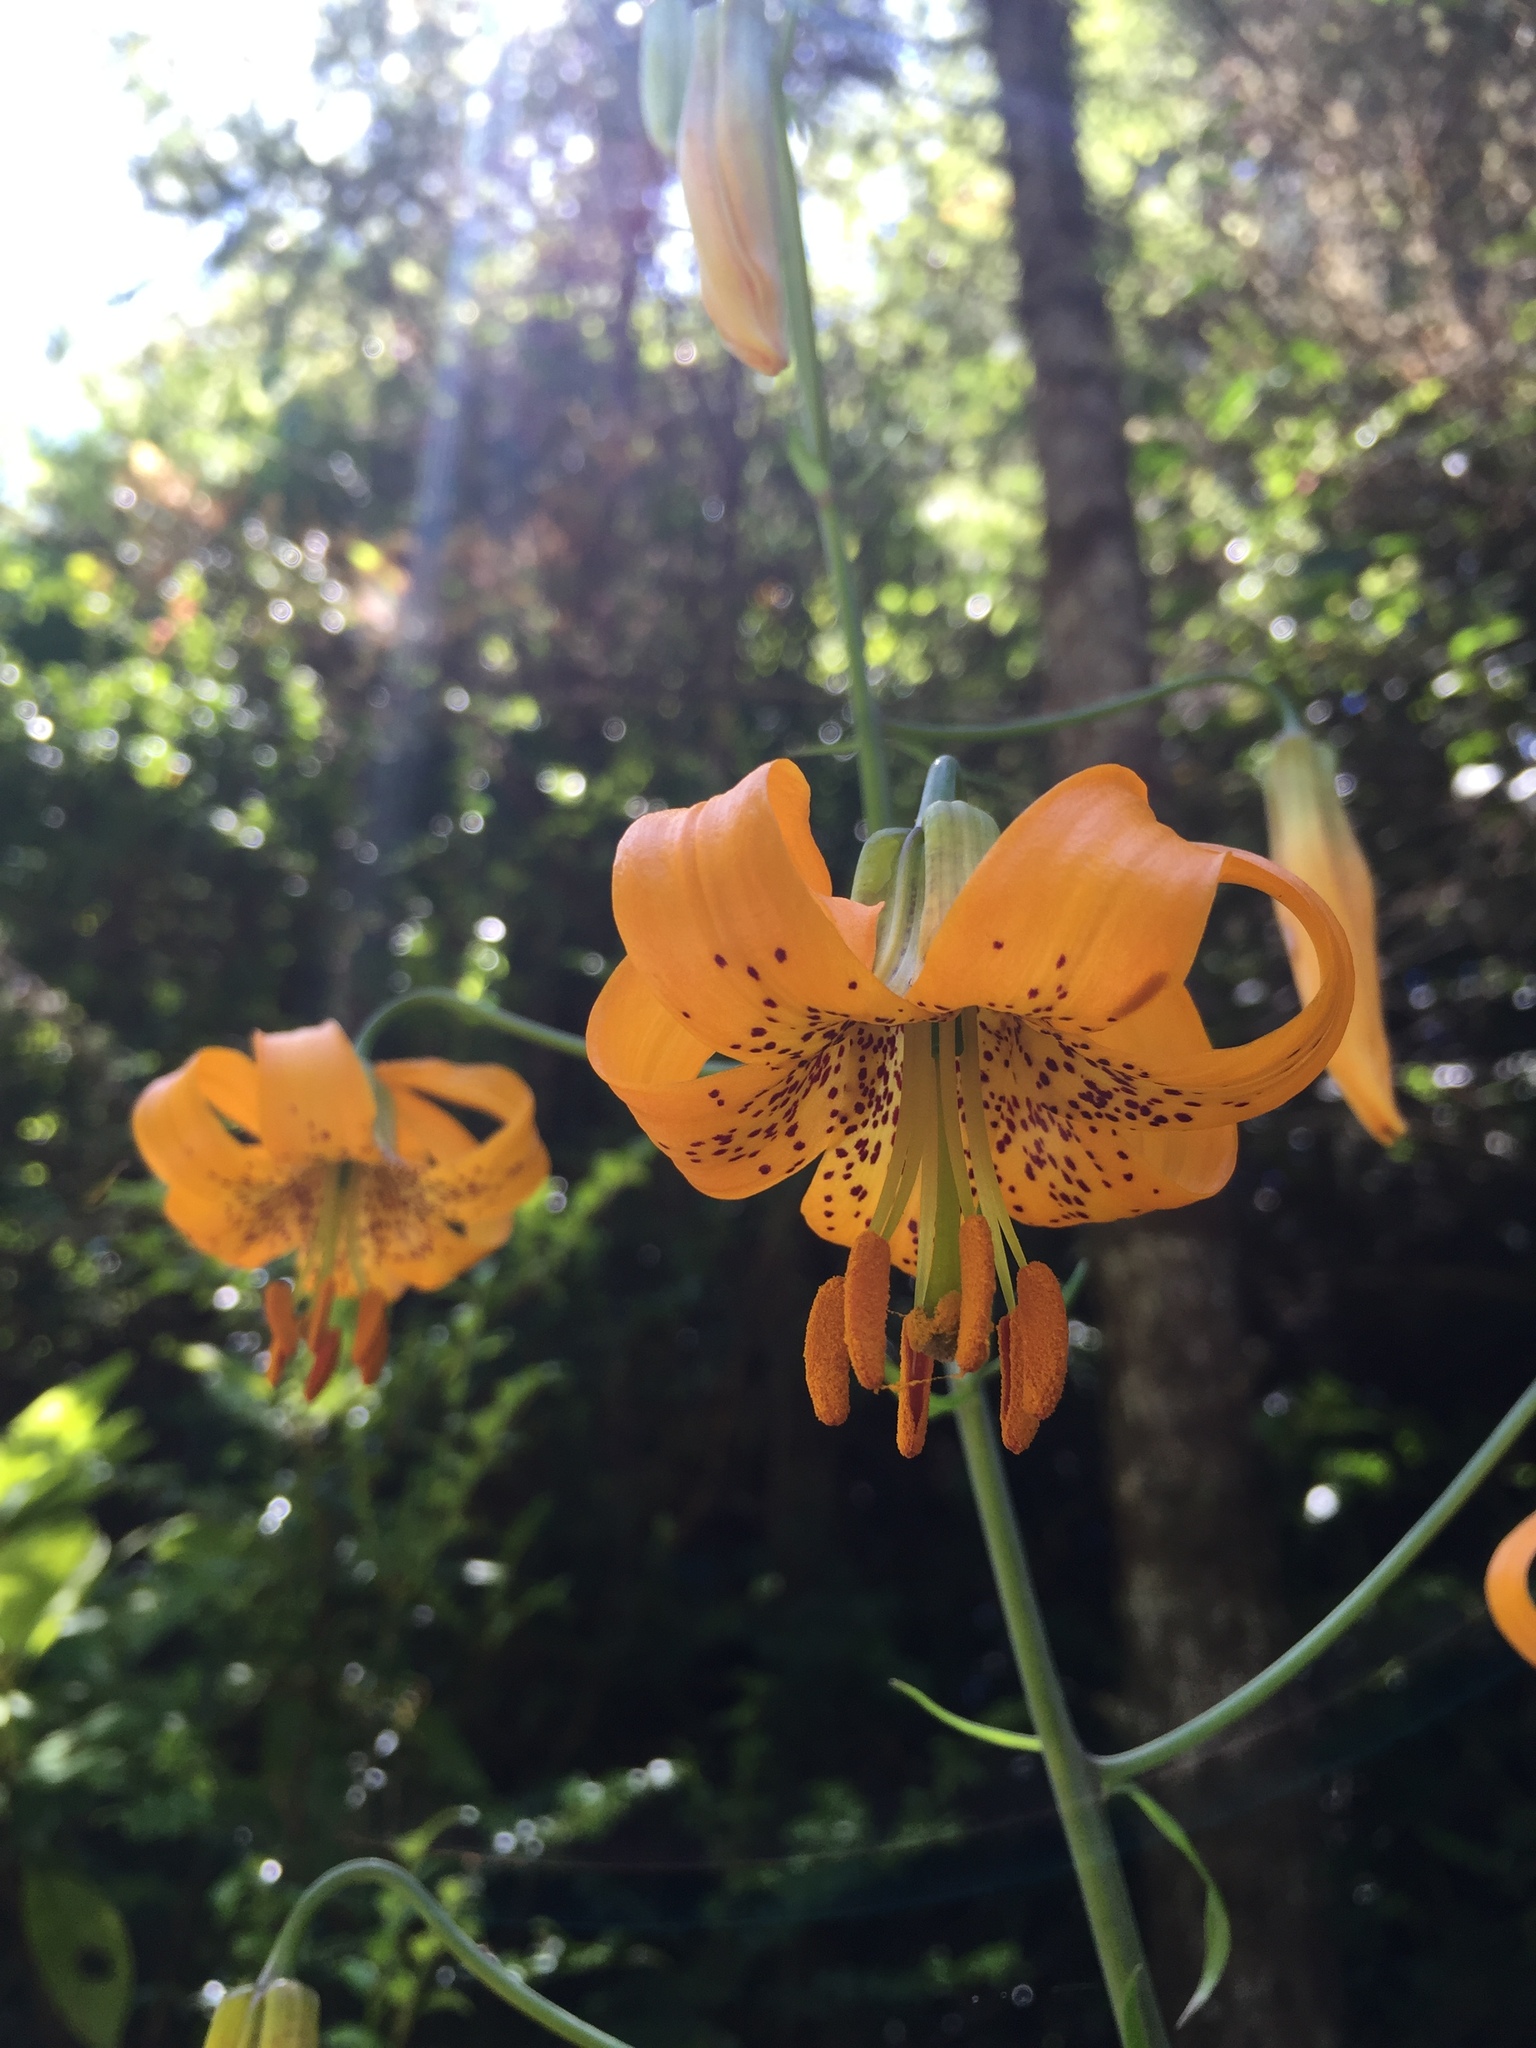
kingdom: Plantae
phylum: Tracheophyta
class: Liliopsida
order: Liliales
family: Liliaceae
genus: Lilium
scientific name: Lilium columbianum
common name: Columbia lily
